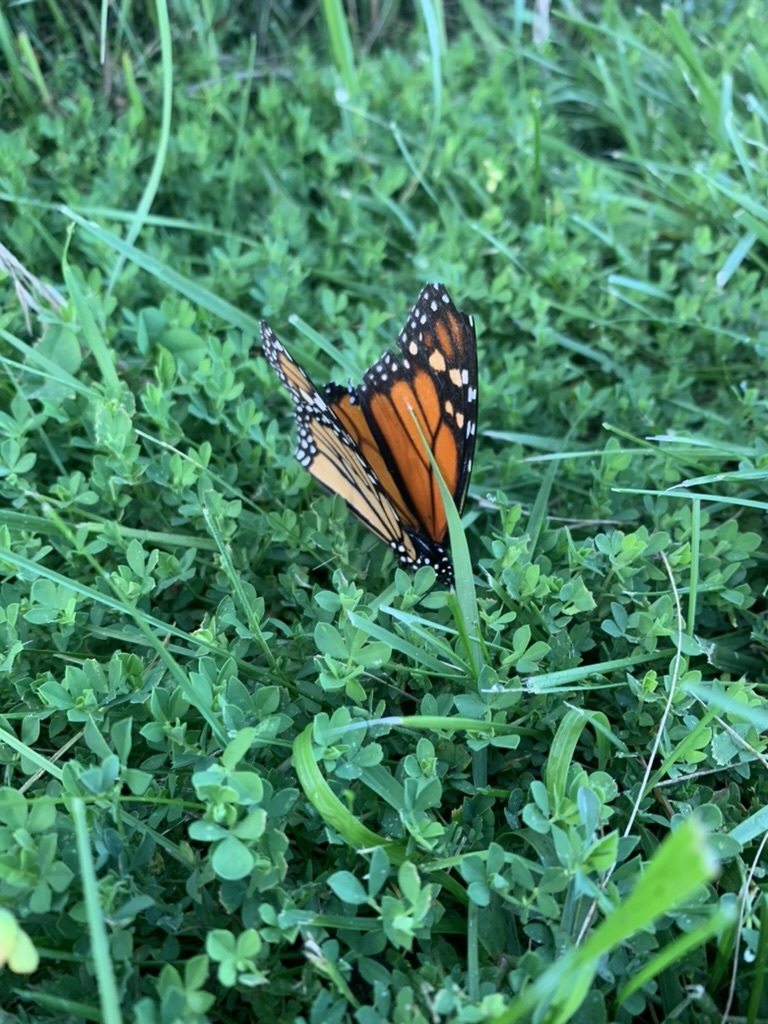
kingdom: Animalia
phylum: Arthropoda
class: Insecta
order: Lepidoptera
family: Nymphalidae
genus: Danaus
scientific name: Danaus plexippus
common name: Monarch
